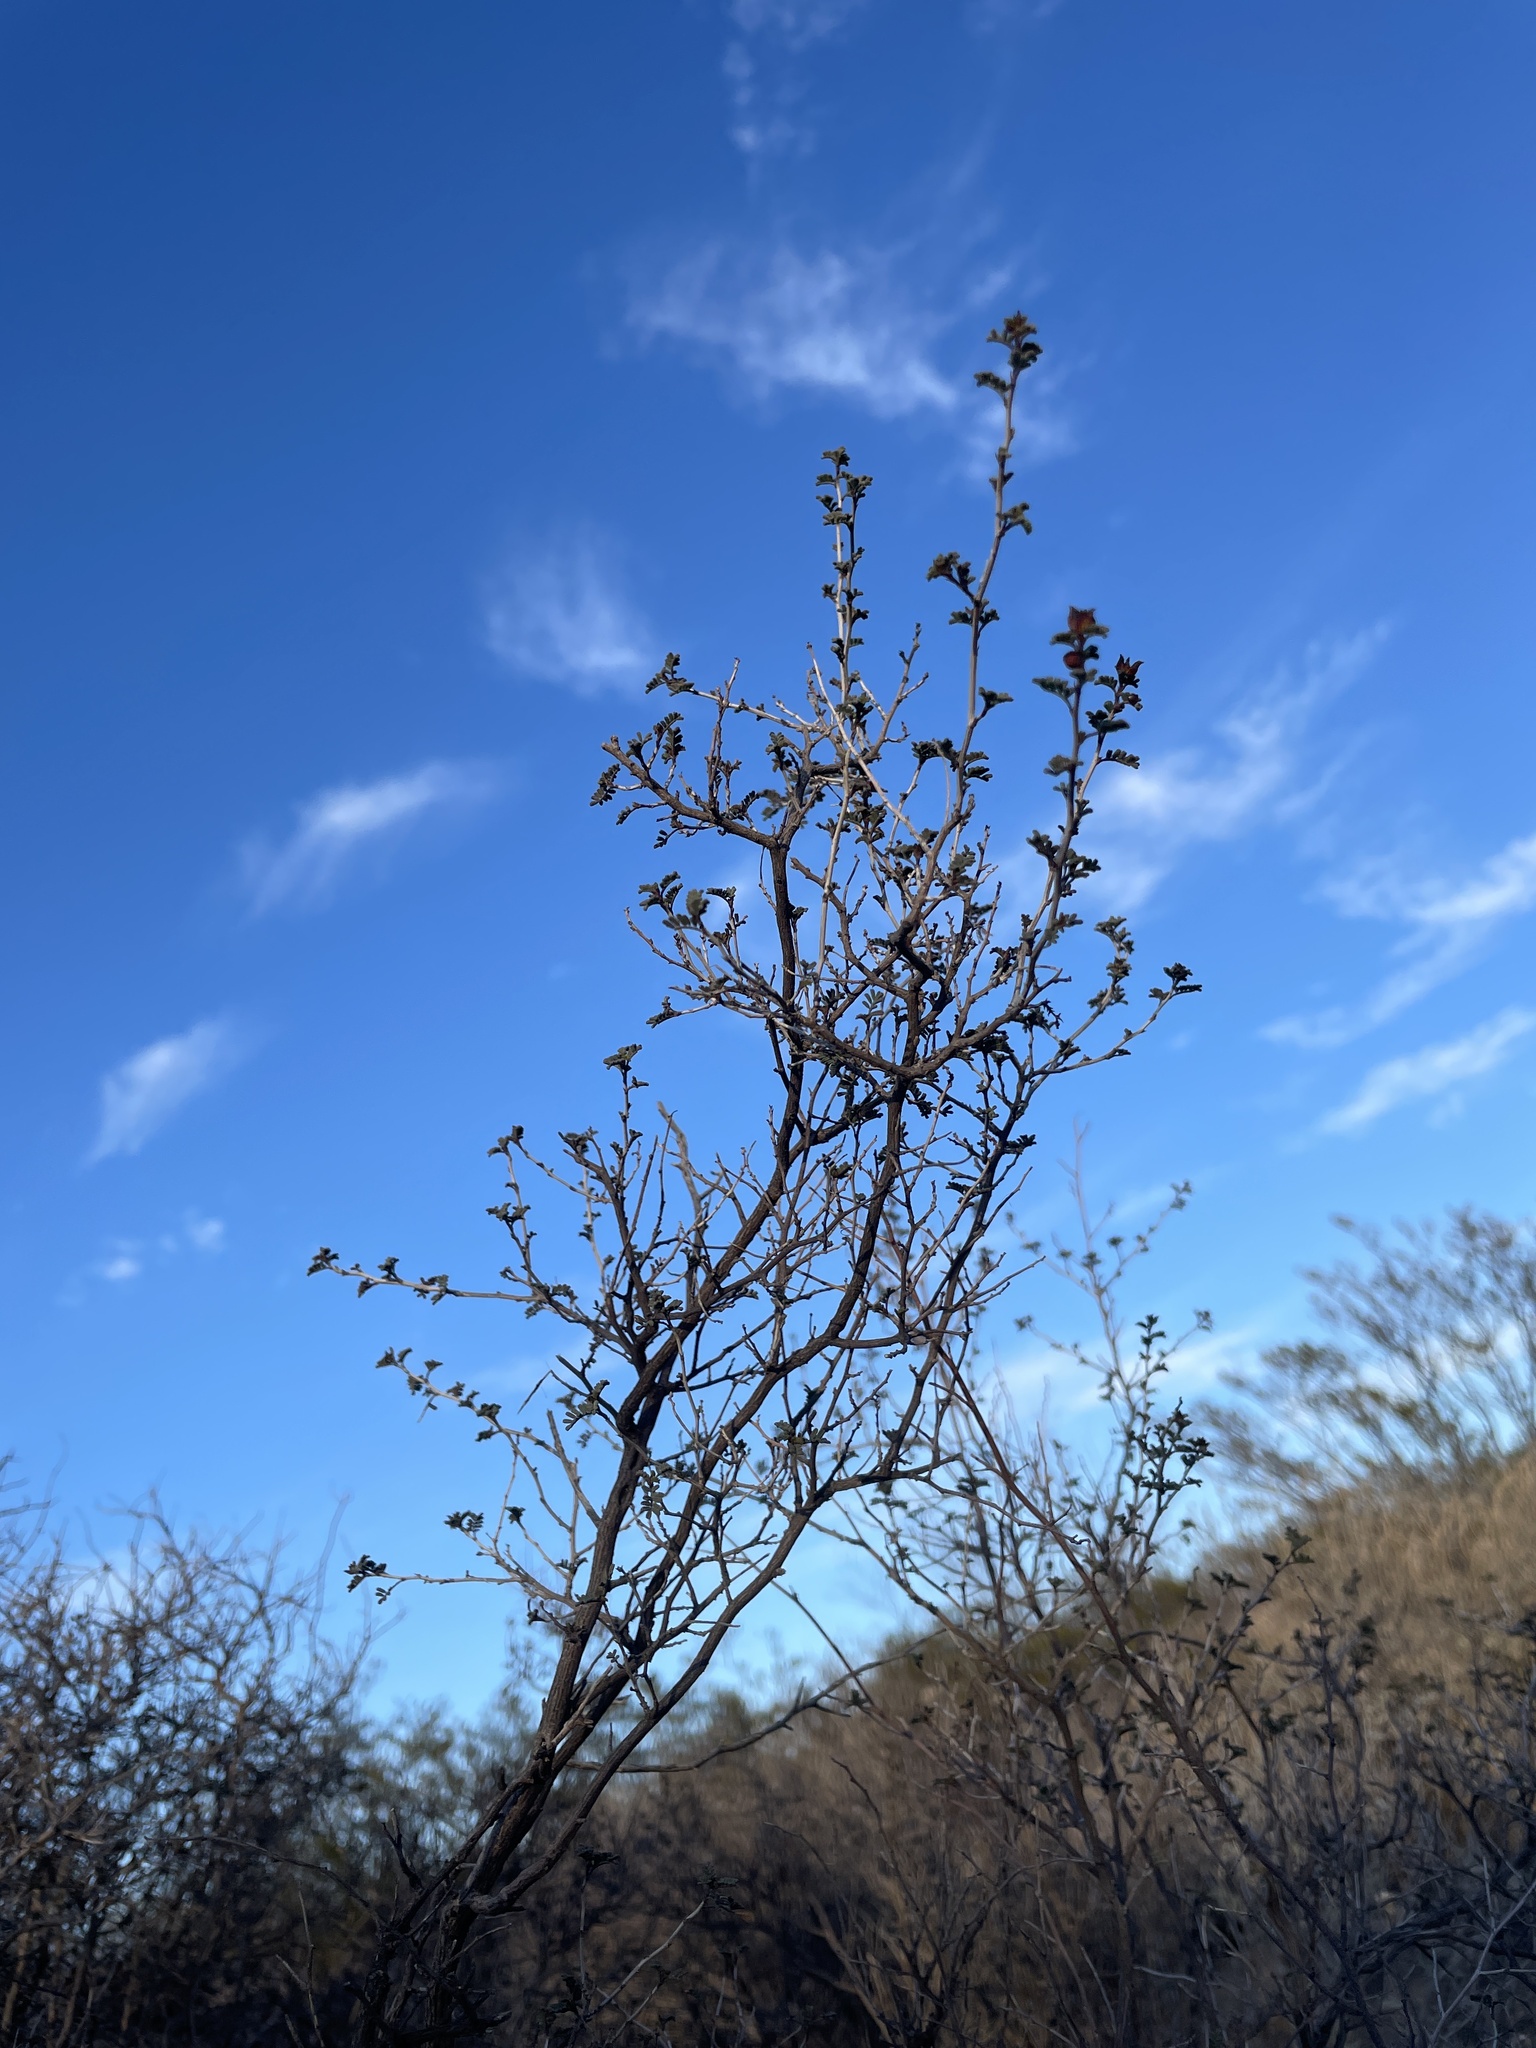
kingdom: Plantae
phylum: Tracheophyta
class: Magnoliopsida
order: Fabales
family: Fabaceae
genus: Dalea
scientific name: Dalea formosa
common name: Feather-plume dalea
